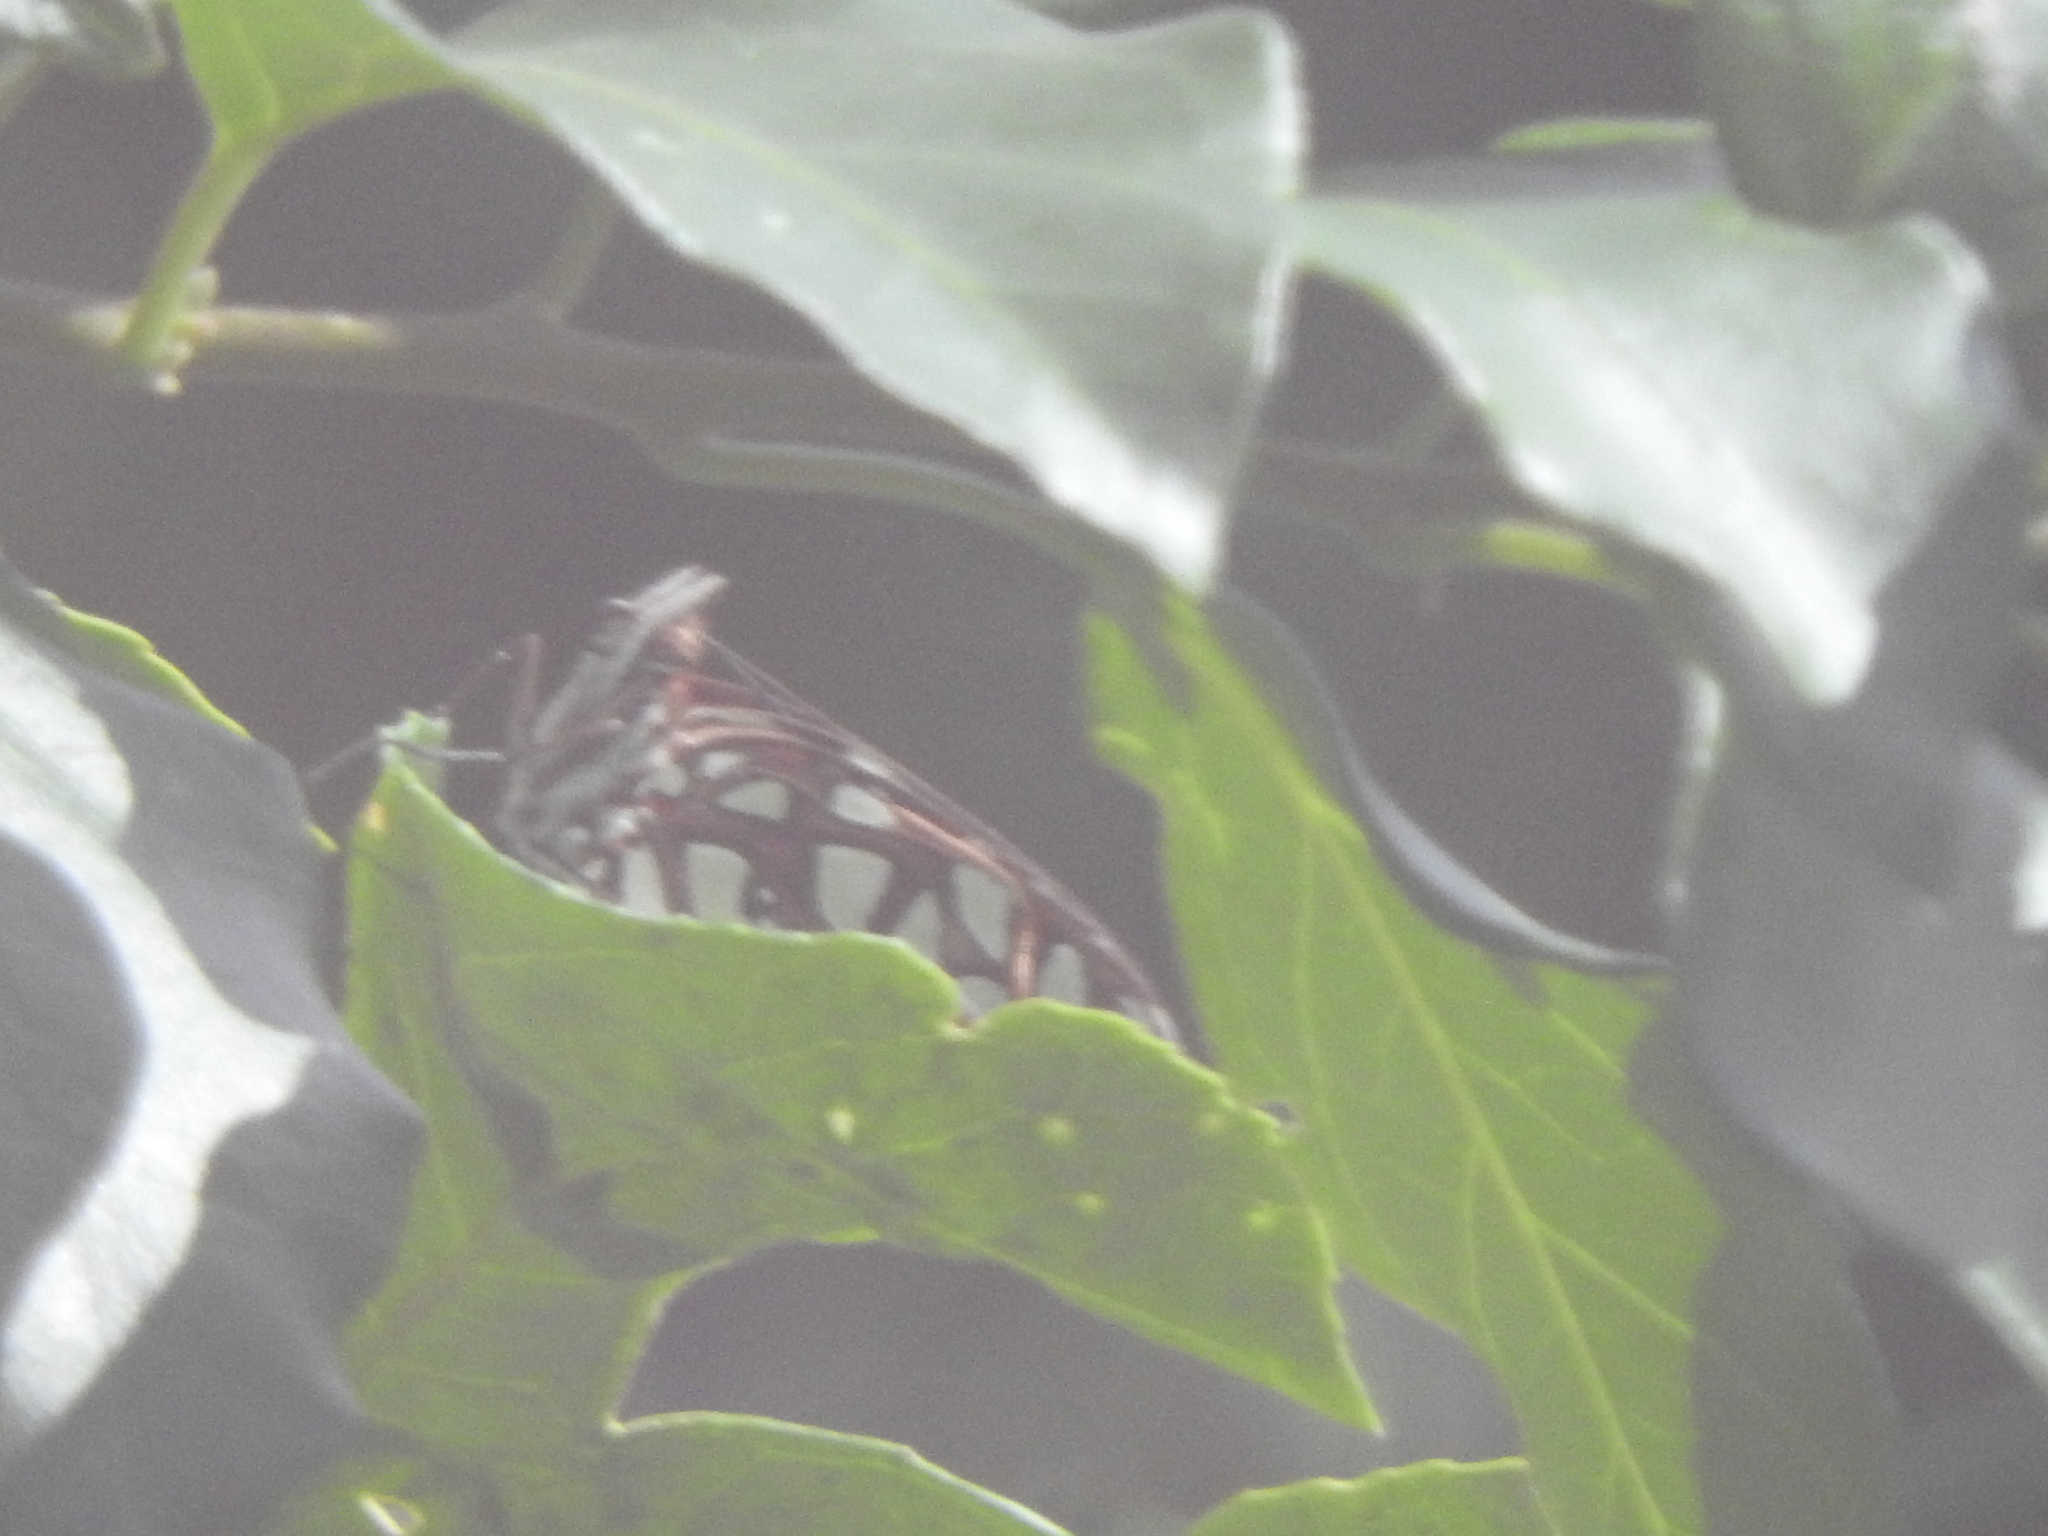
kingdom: Animalia
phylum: Arthropoda
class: Insecta
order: Lepidoptera
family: Nymphalidae
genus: Dione
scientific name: Dione moneta
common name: Mexican silverspot
